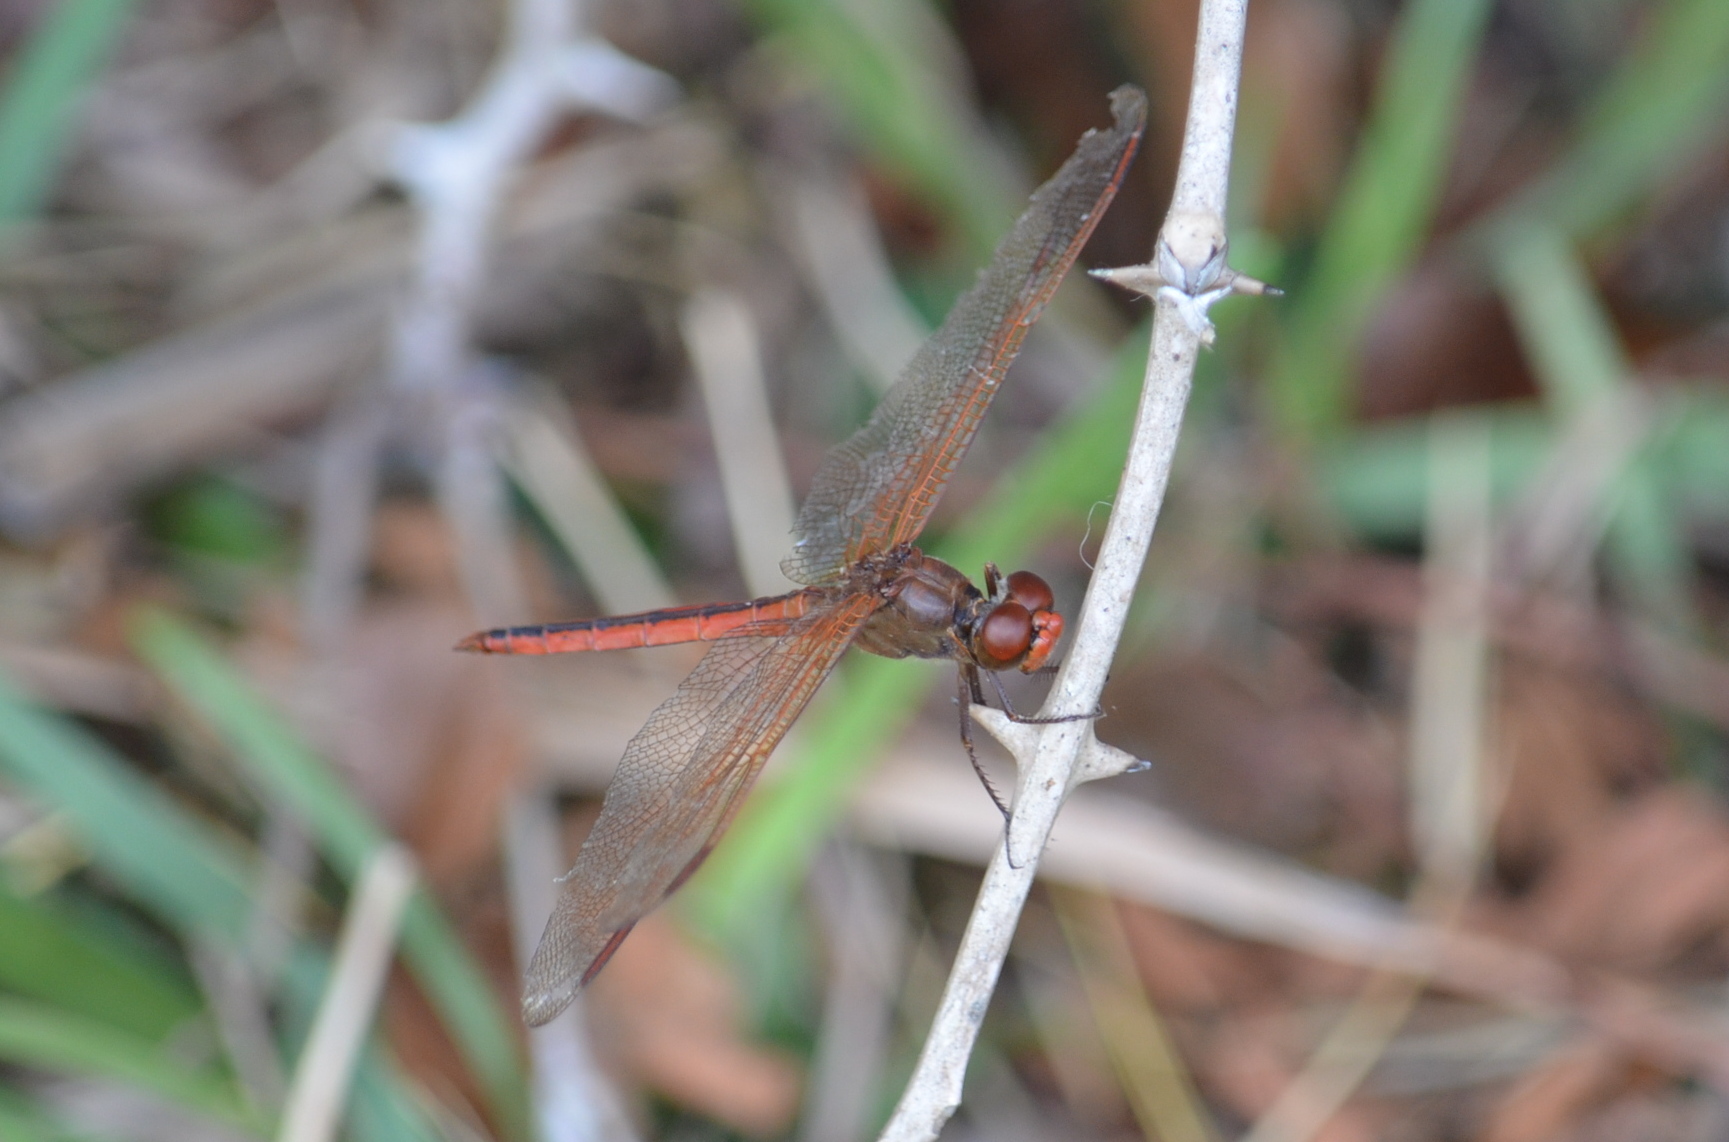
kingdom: Animalia
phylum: Arthropoda
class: Insecta
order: Odonata
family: Libellulidae
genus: Libellula
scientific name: Libellula needhami
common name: Needham's skimmer
